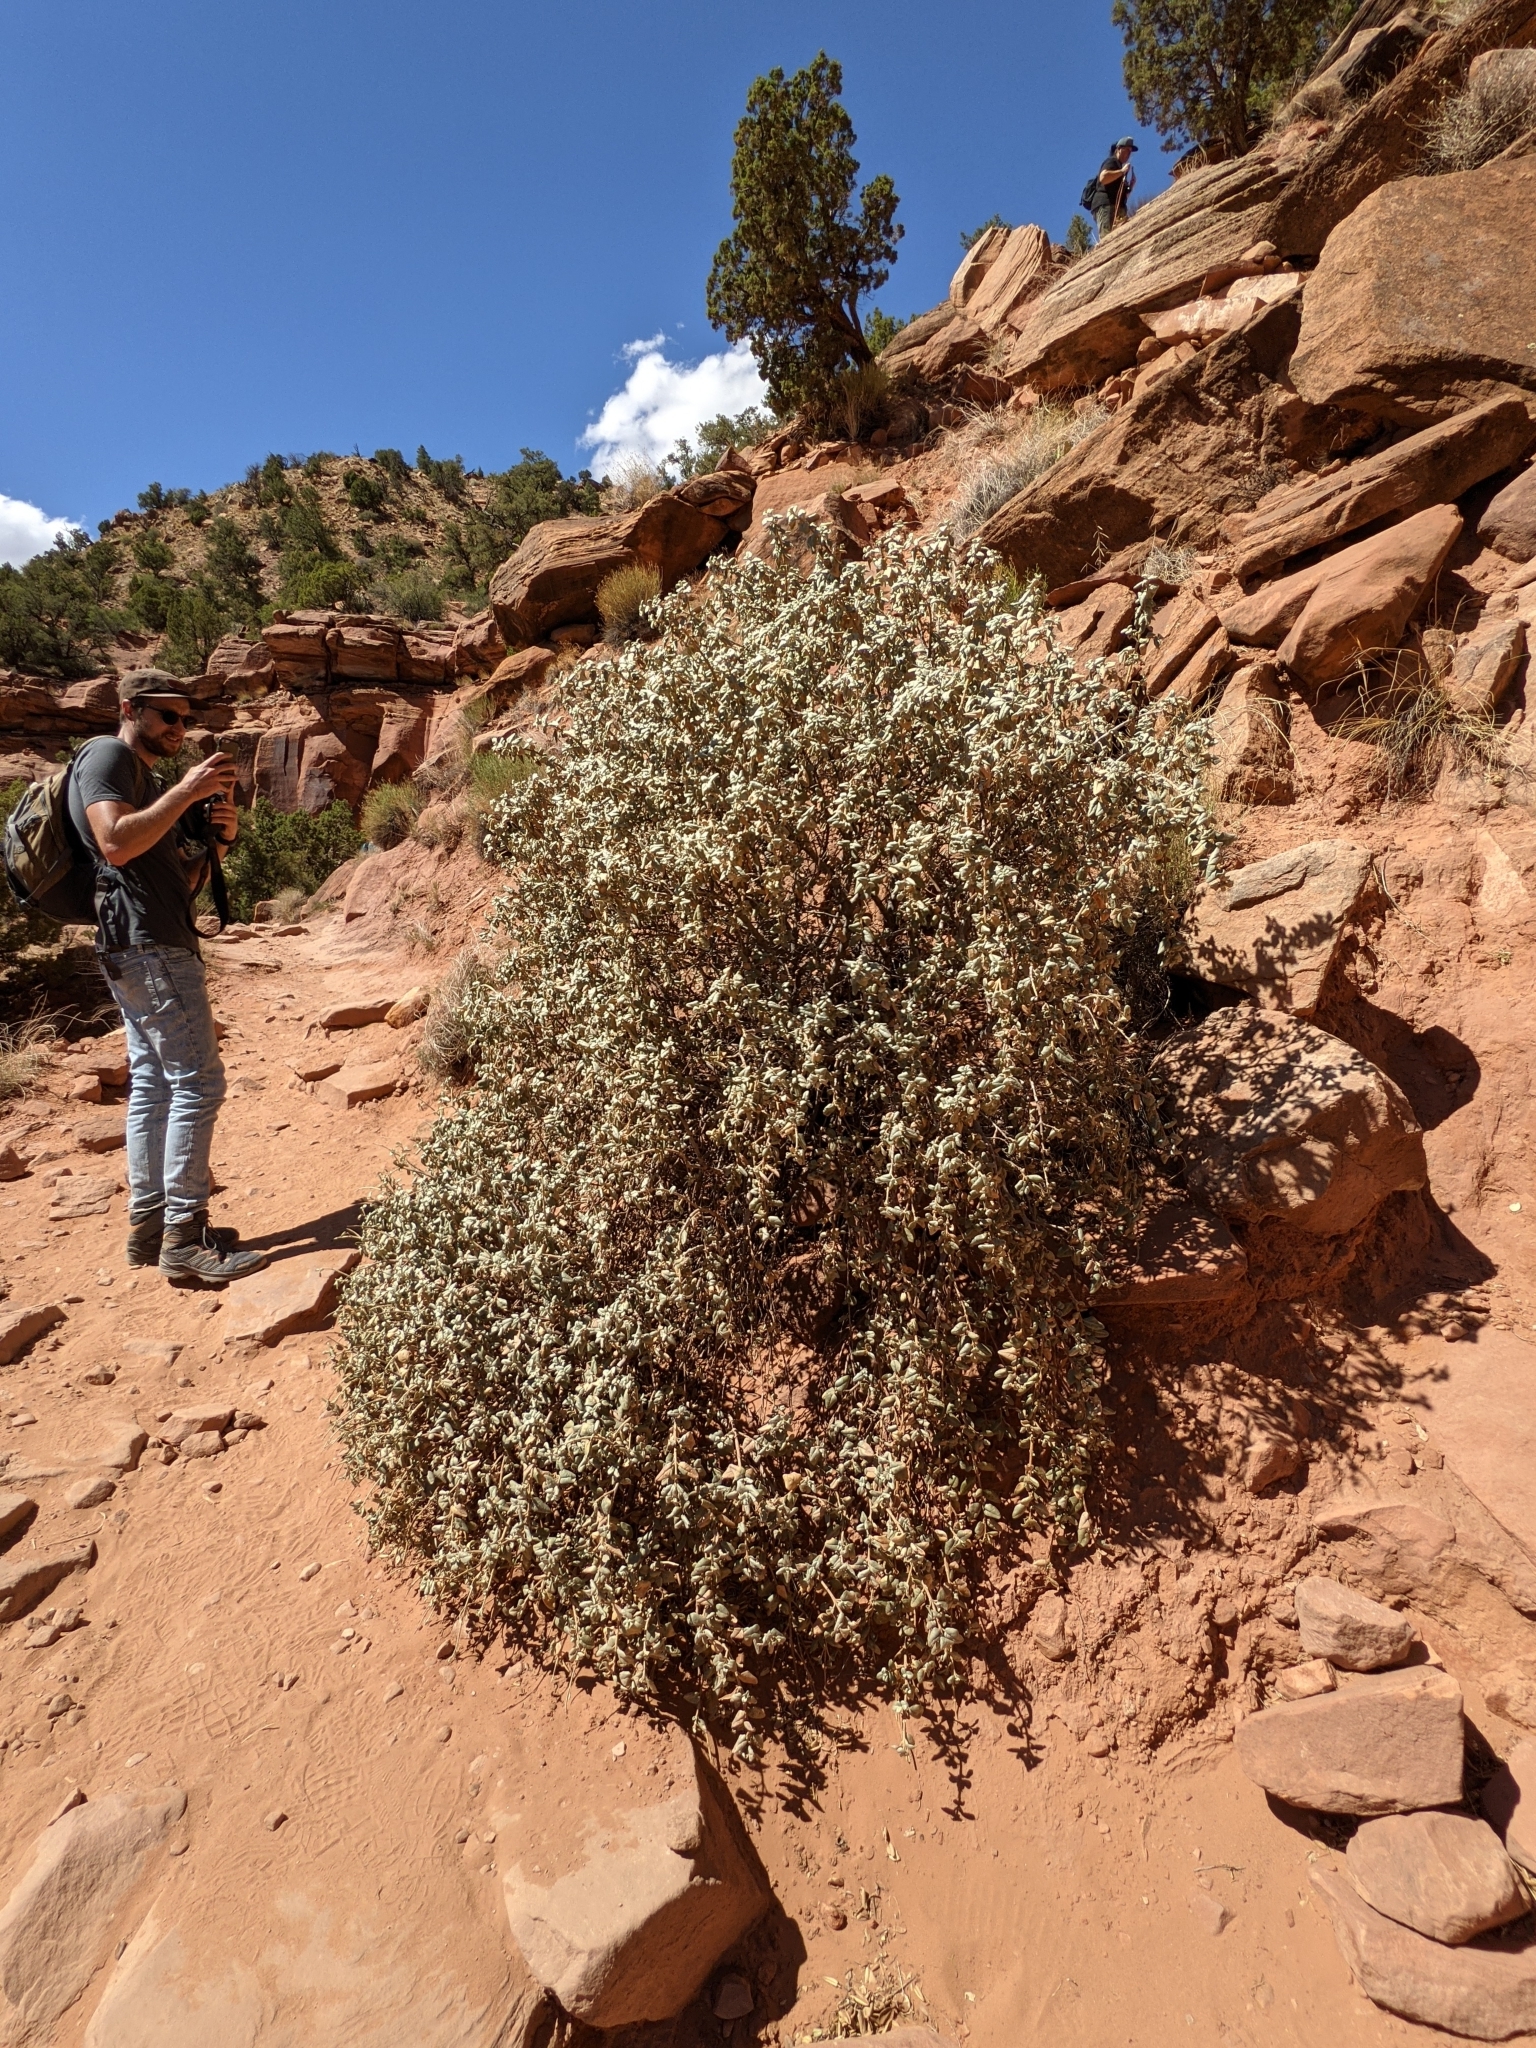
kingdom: Plantae
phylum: Tracheophyta
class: Magnoliopsida
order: Rosales
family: Elaeagnaceae
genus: Shepherdia
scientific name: Shepherdia rotundifolia
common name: Silverscale
